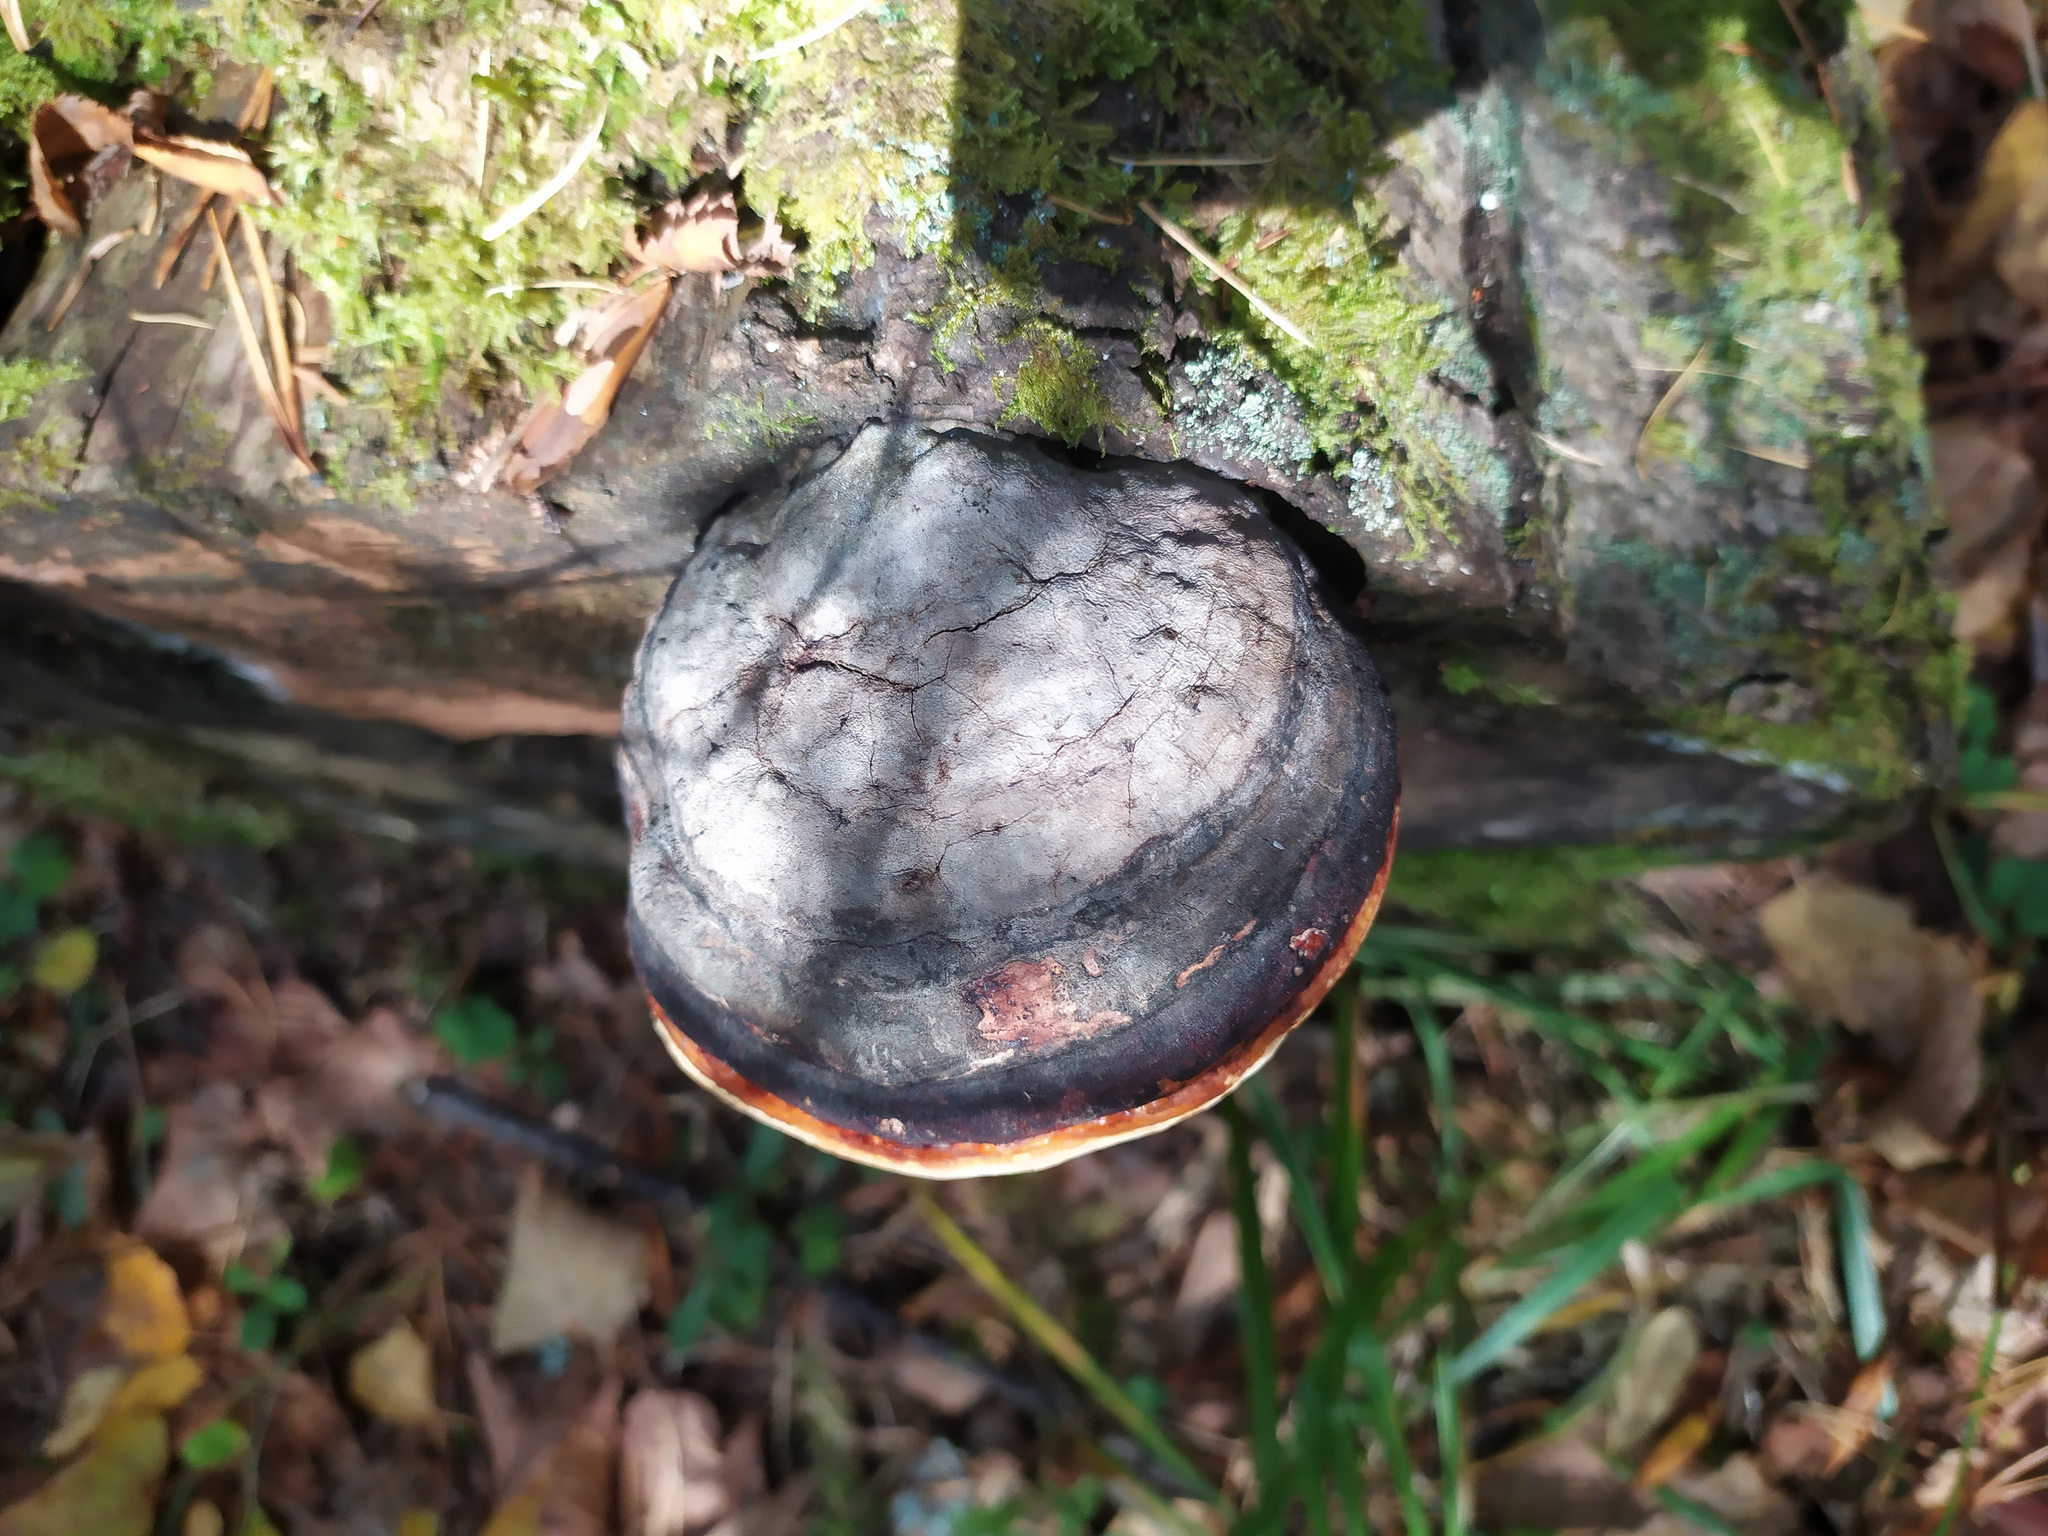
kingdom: Fungi
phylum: Basidiomycota
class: Agaricomycetes
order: Polyporales
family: Fomitopsidaceae
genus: Fomitopsis
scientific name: Fomitopsis pinicola
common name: Red-belted bracket
